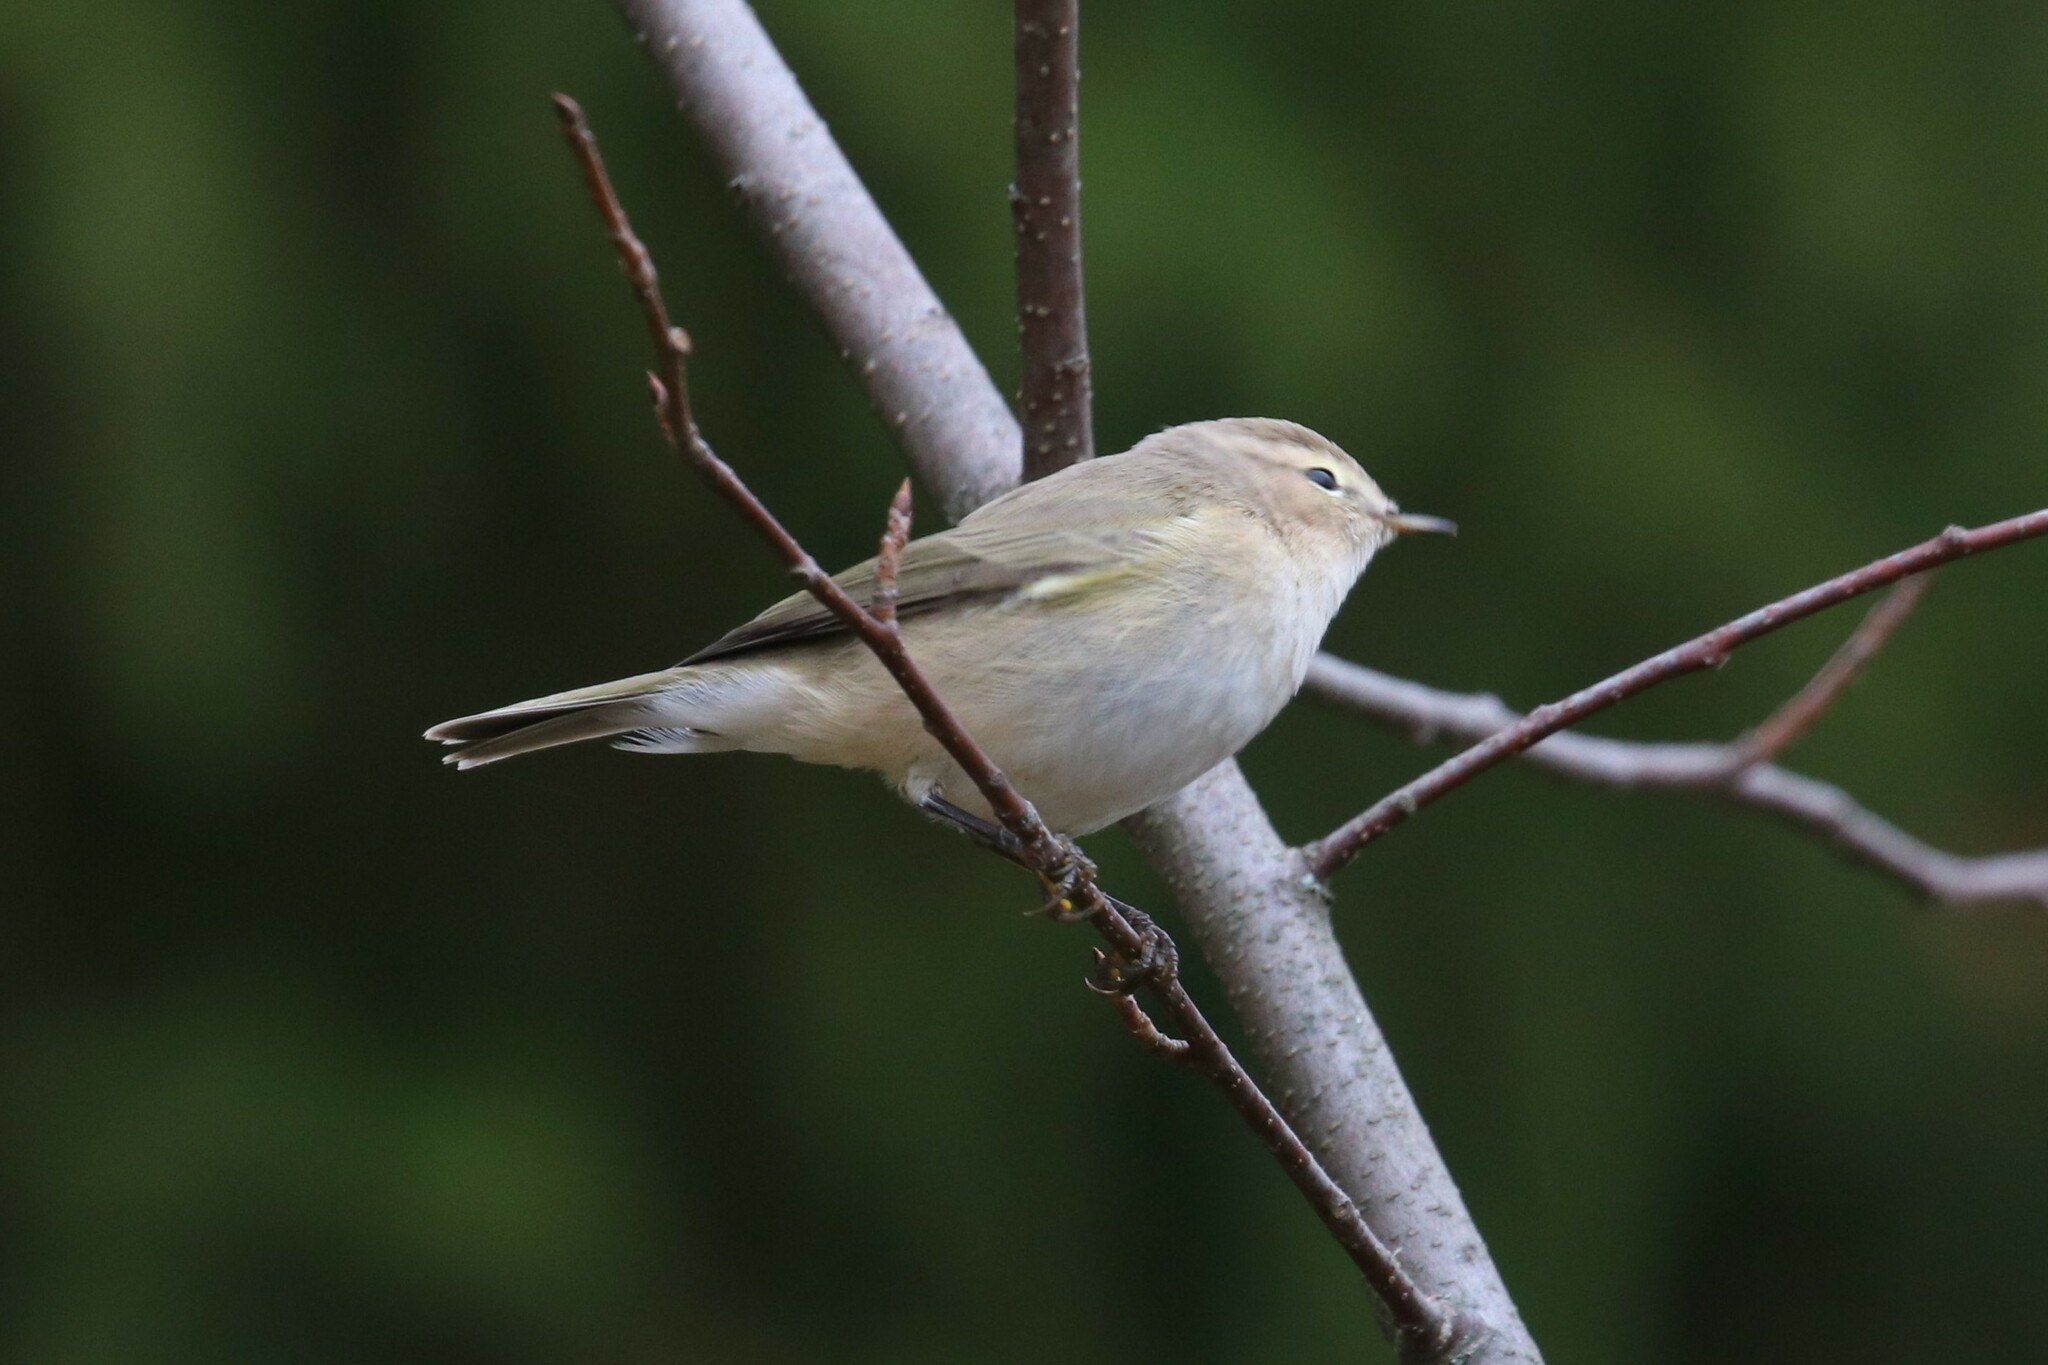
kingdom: Animalia
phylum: Chordata
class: Aves
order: Passeriformes
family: Phylloscopidae
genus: Phylloscopus
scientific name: Phylloscopus collybita
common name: Common chiffchaff
